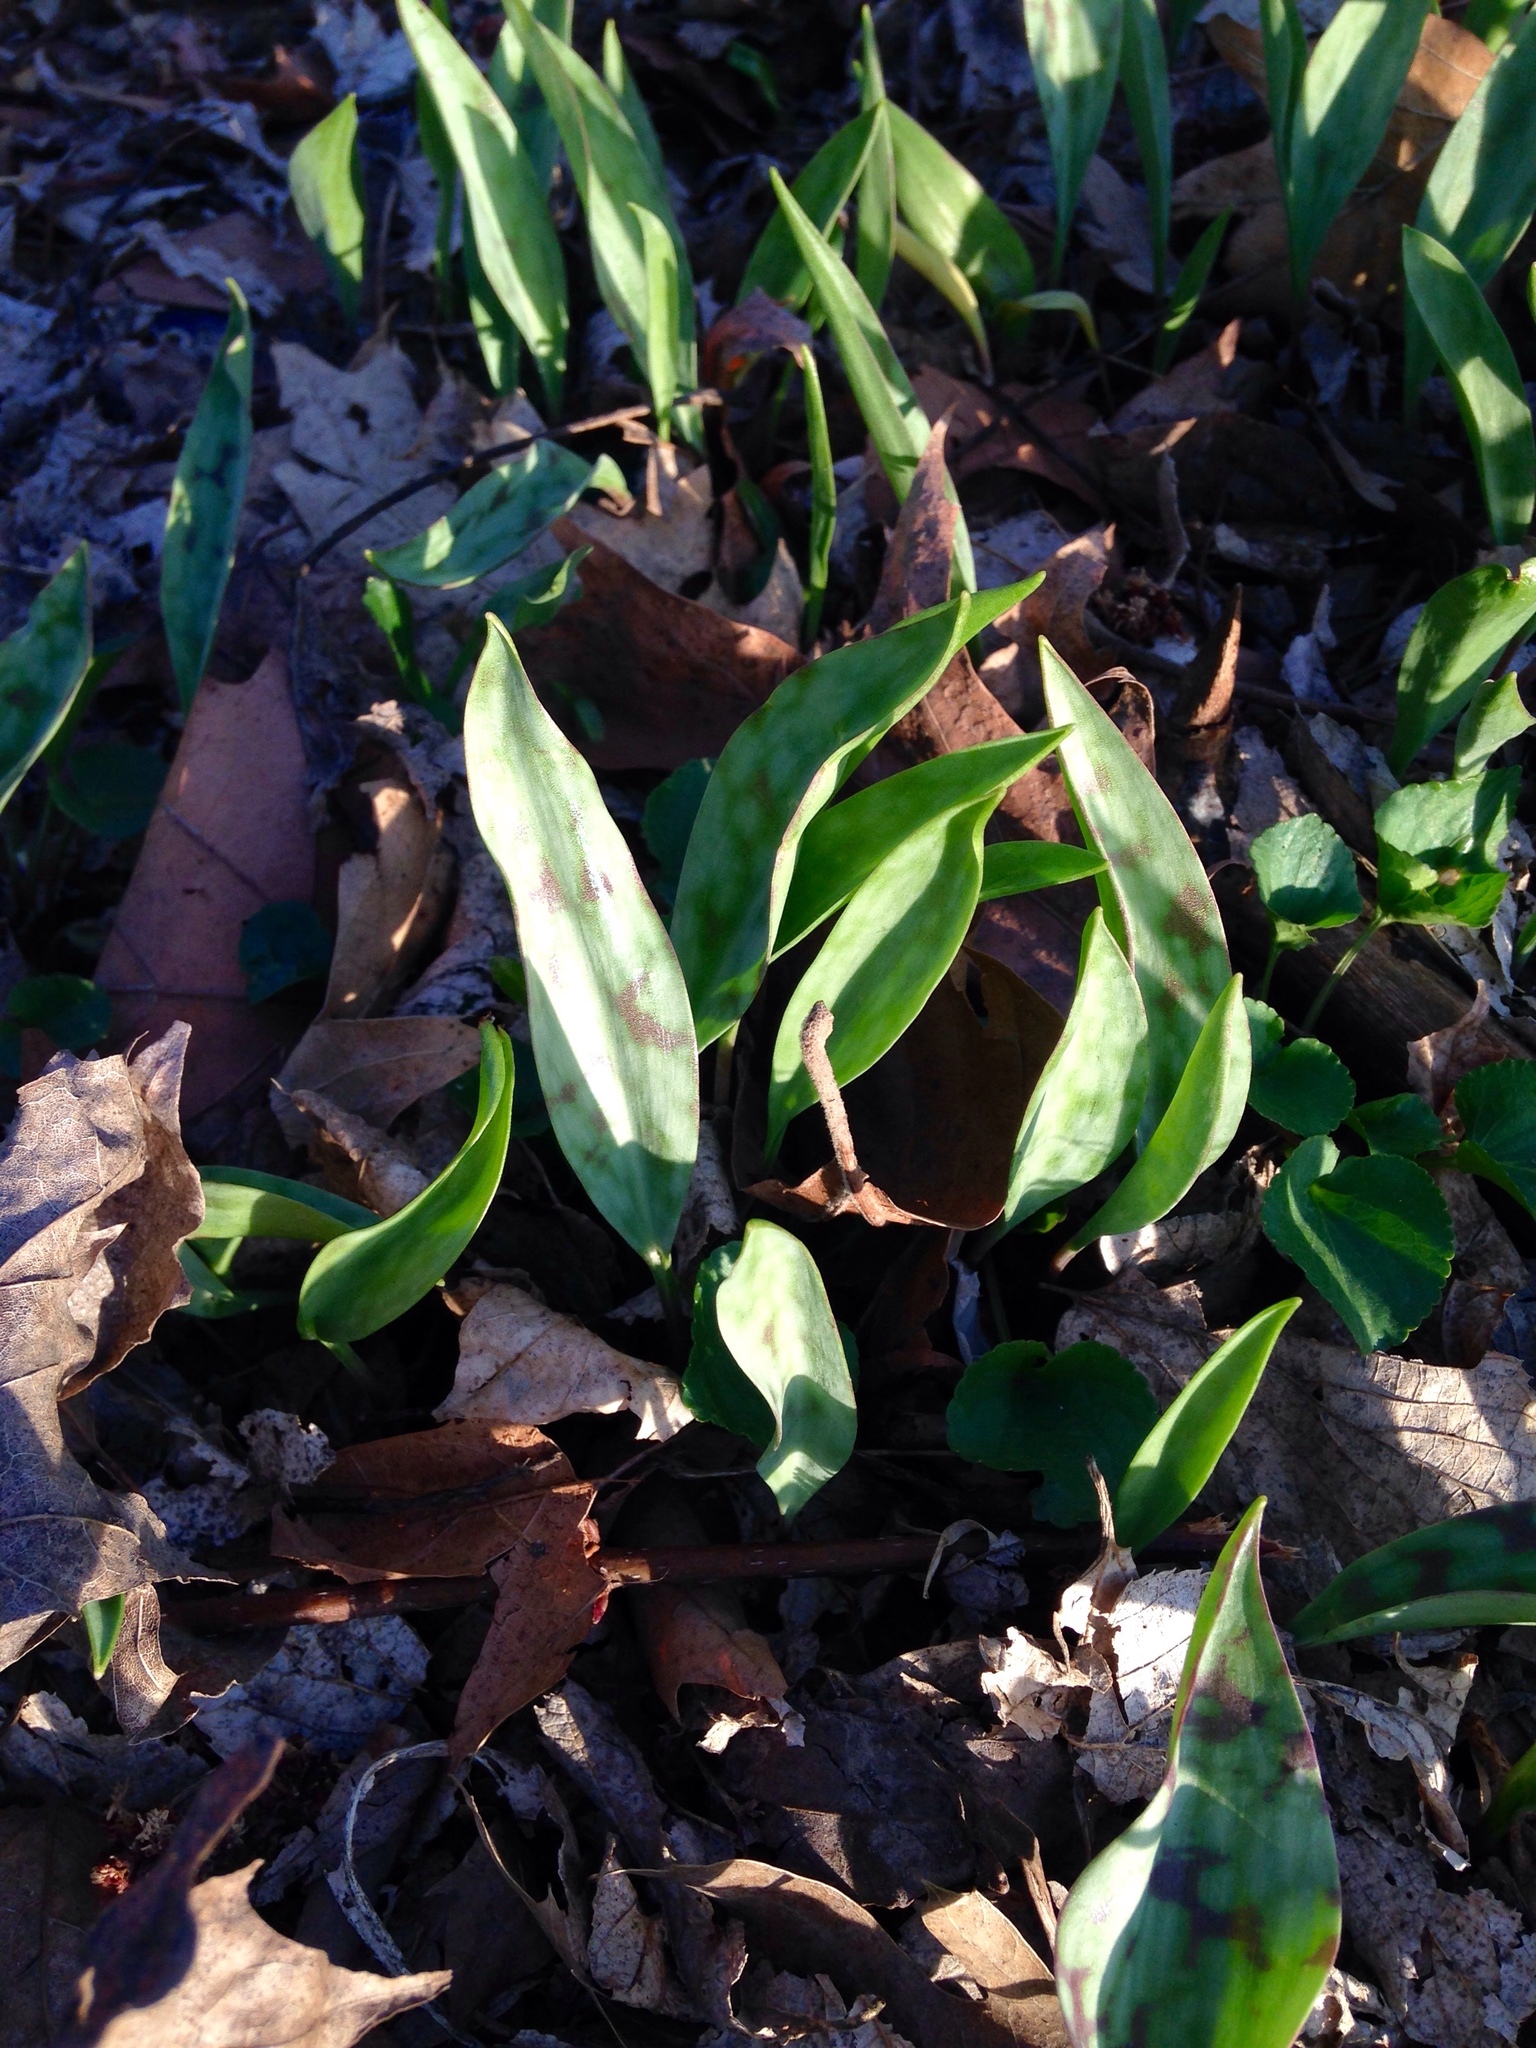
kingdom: Plantae
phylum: Tracheophyta
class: Liliopsida
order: Liliales
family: Liliaceae
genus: Erythronium
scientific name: Erythronium albidum
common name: White trout-lily
